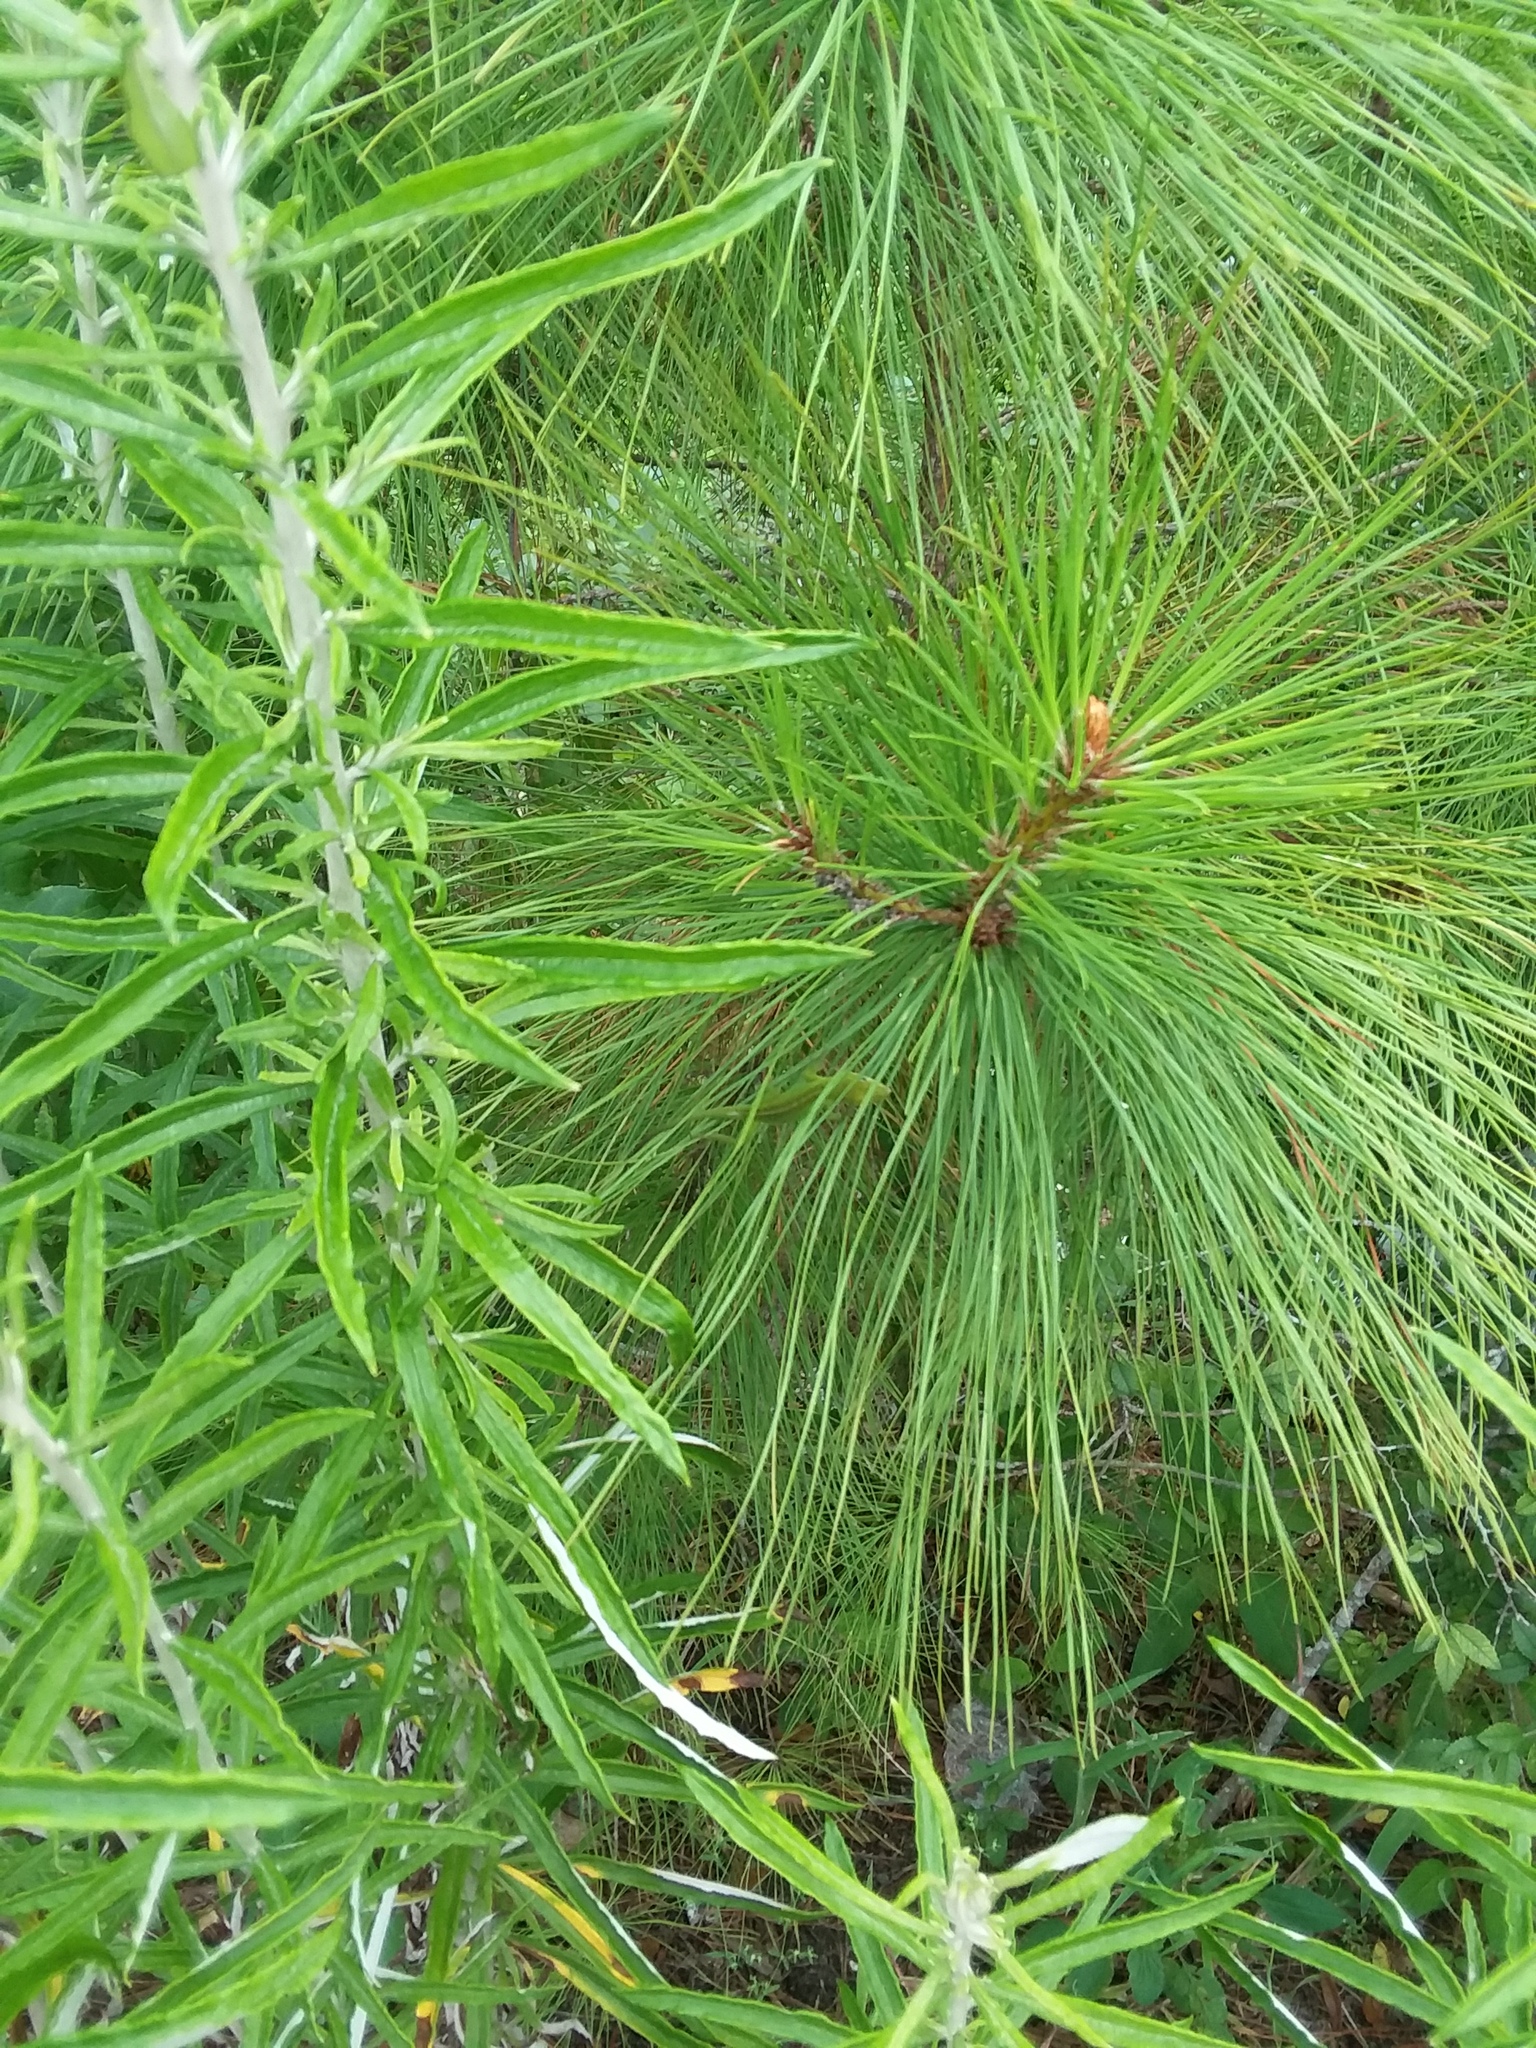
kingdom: Animalia
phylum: Chordata
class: Squamata
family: Dactyloidae
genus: Anolis
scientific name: Anolis carolinensis
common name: Green anole
